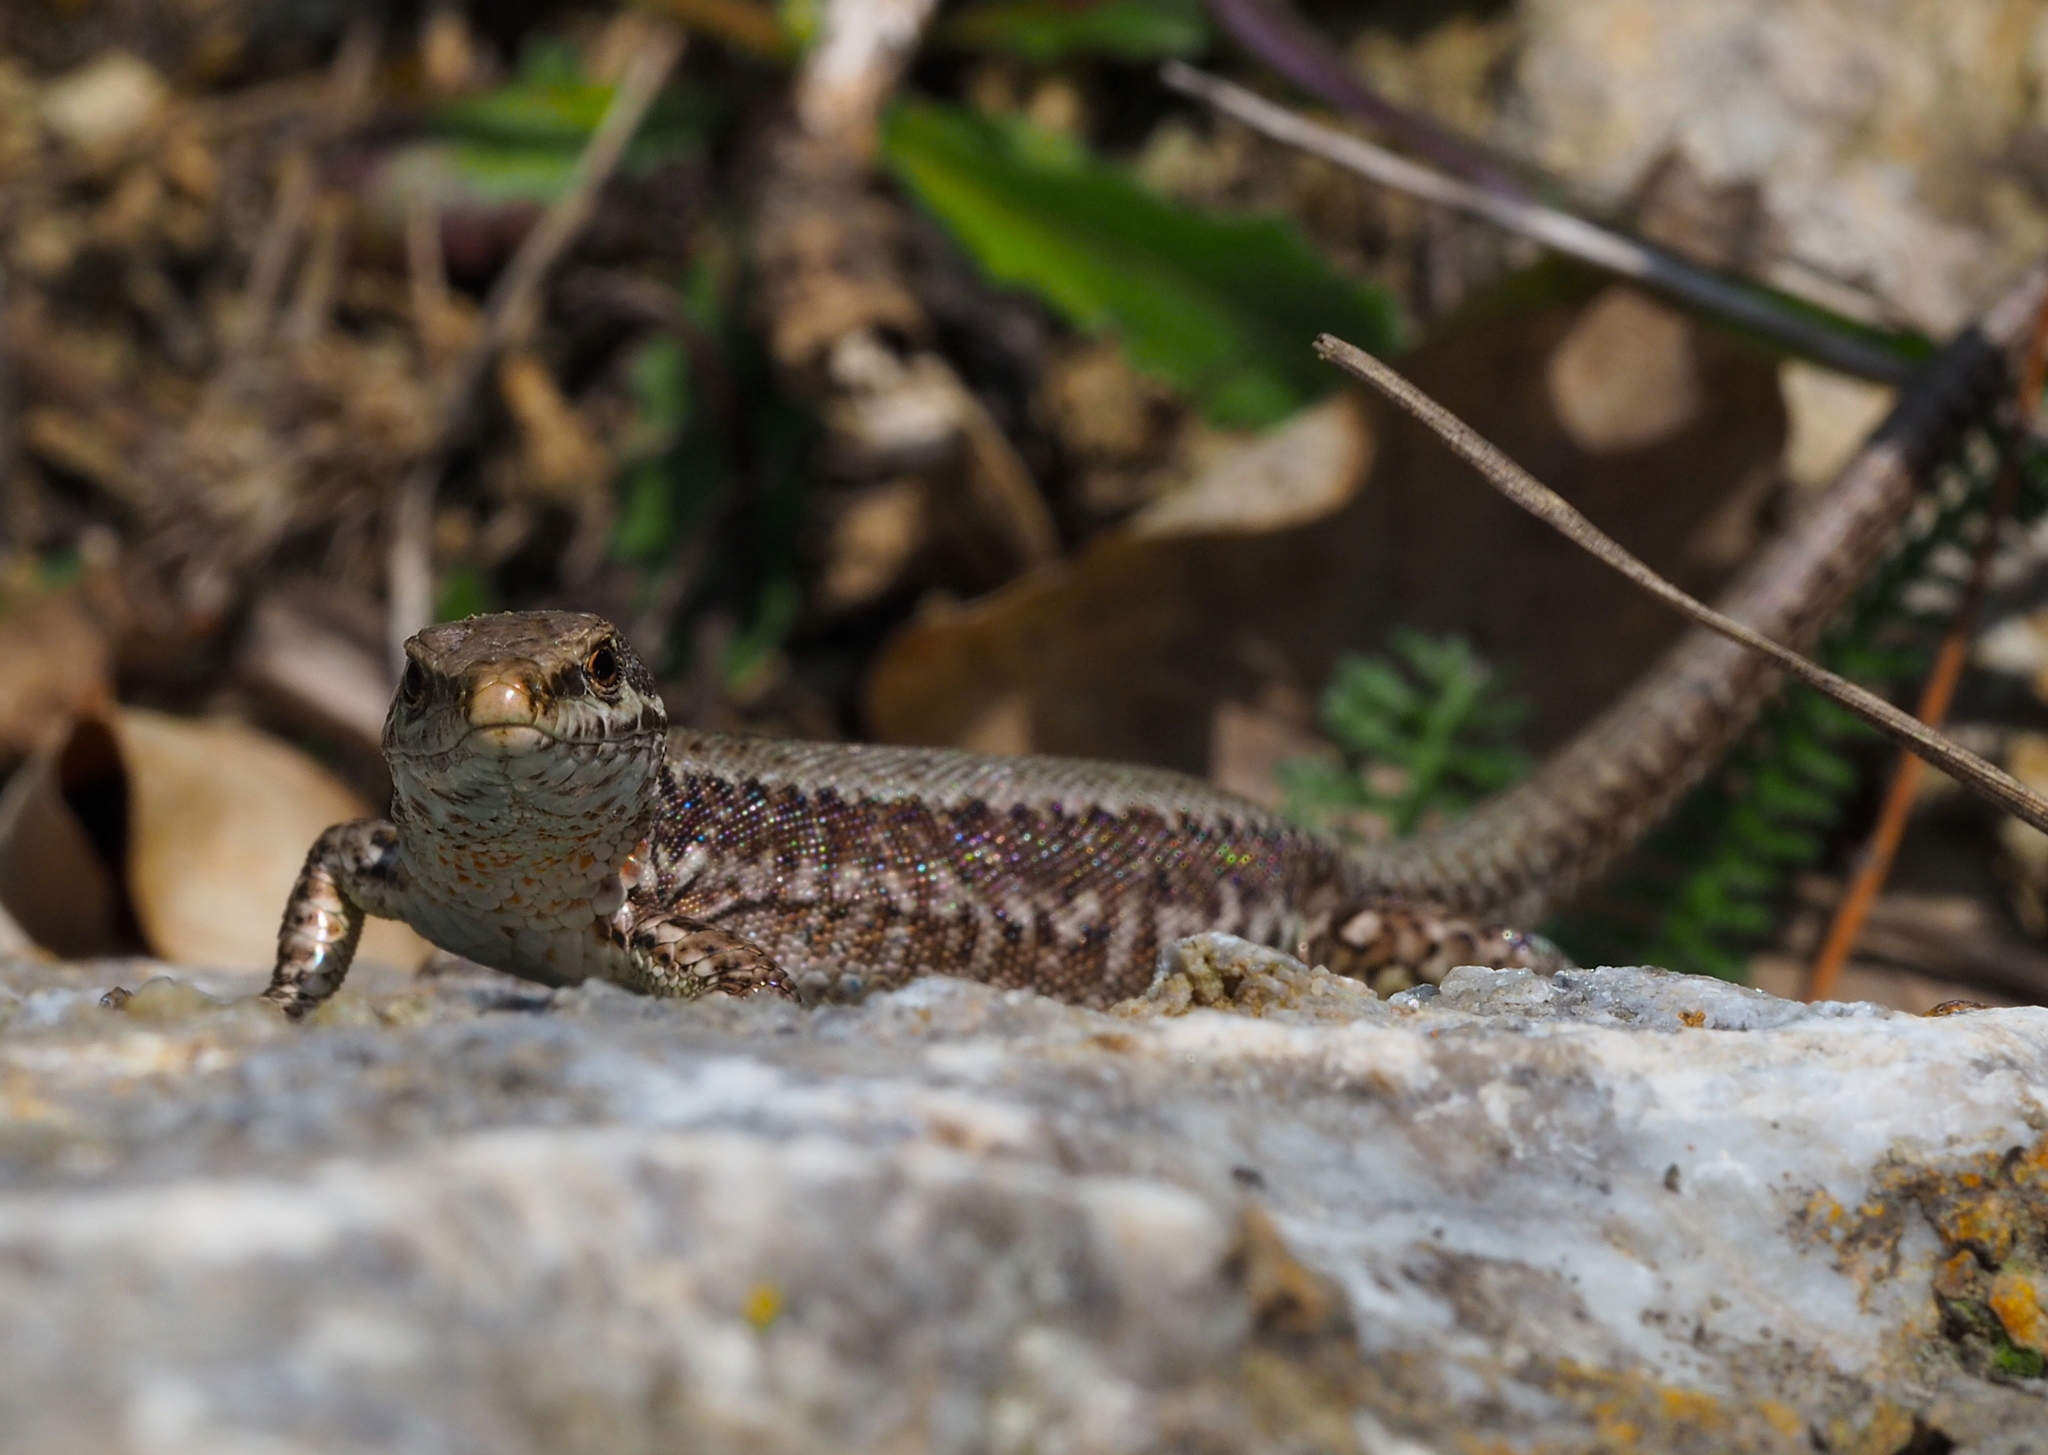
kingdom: Animalia
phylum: Chordata
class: Squamata
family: Lacertidae
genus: Podarcis
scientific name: Podarcis muralis
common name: Common wall lizard
